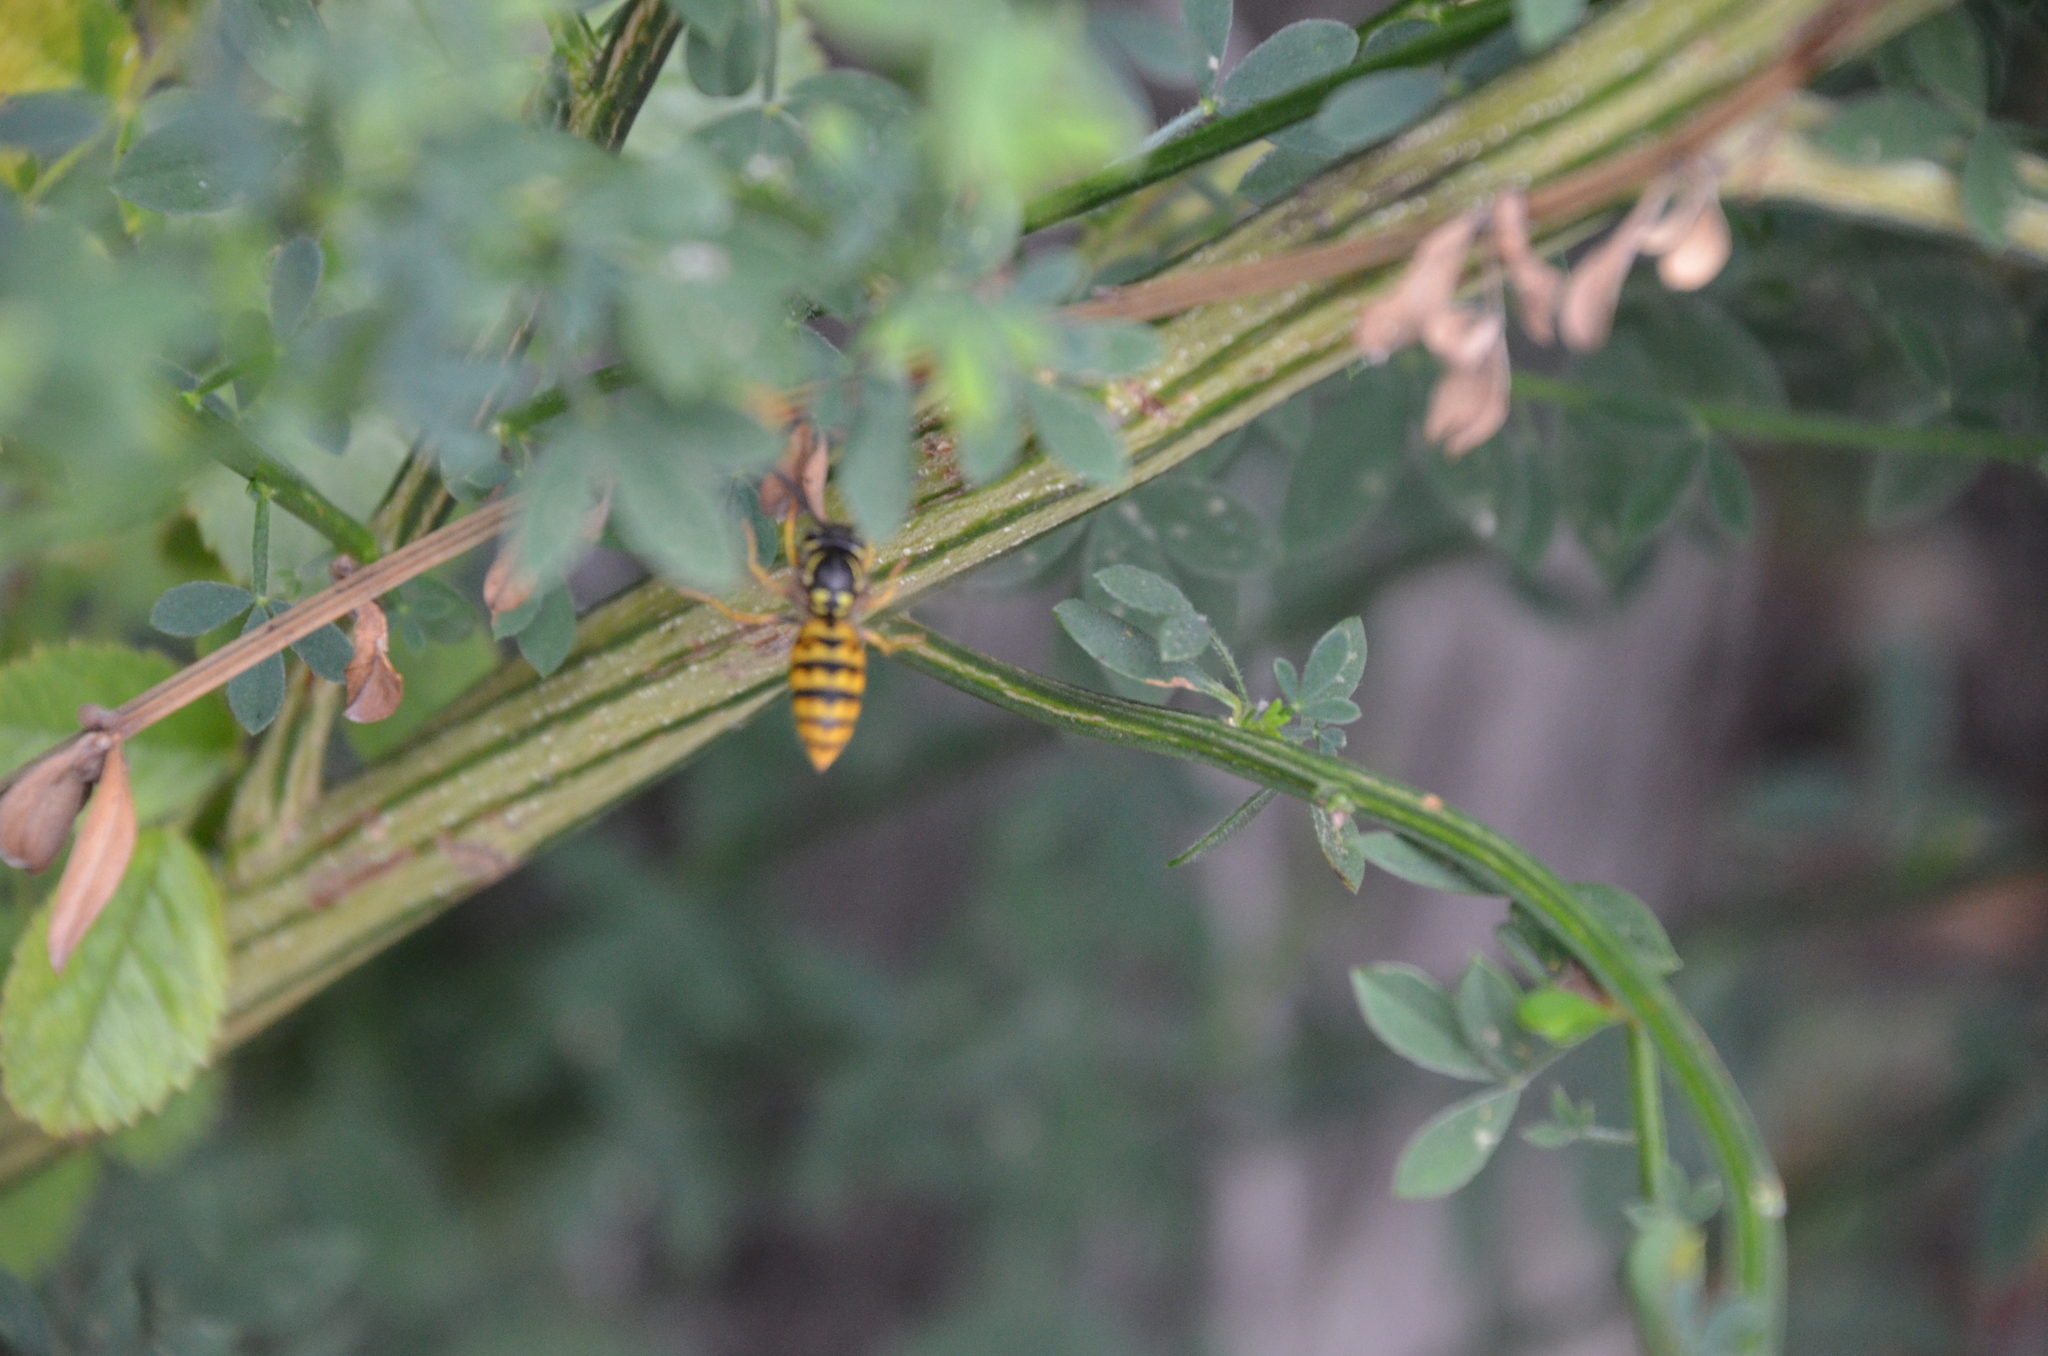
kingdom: Animalia
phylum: Arthropoda
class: Insecta
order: Hymenoptera
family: Vespidae
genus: Vespula
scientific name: Vespula germanica
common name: German wasp
